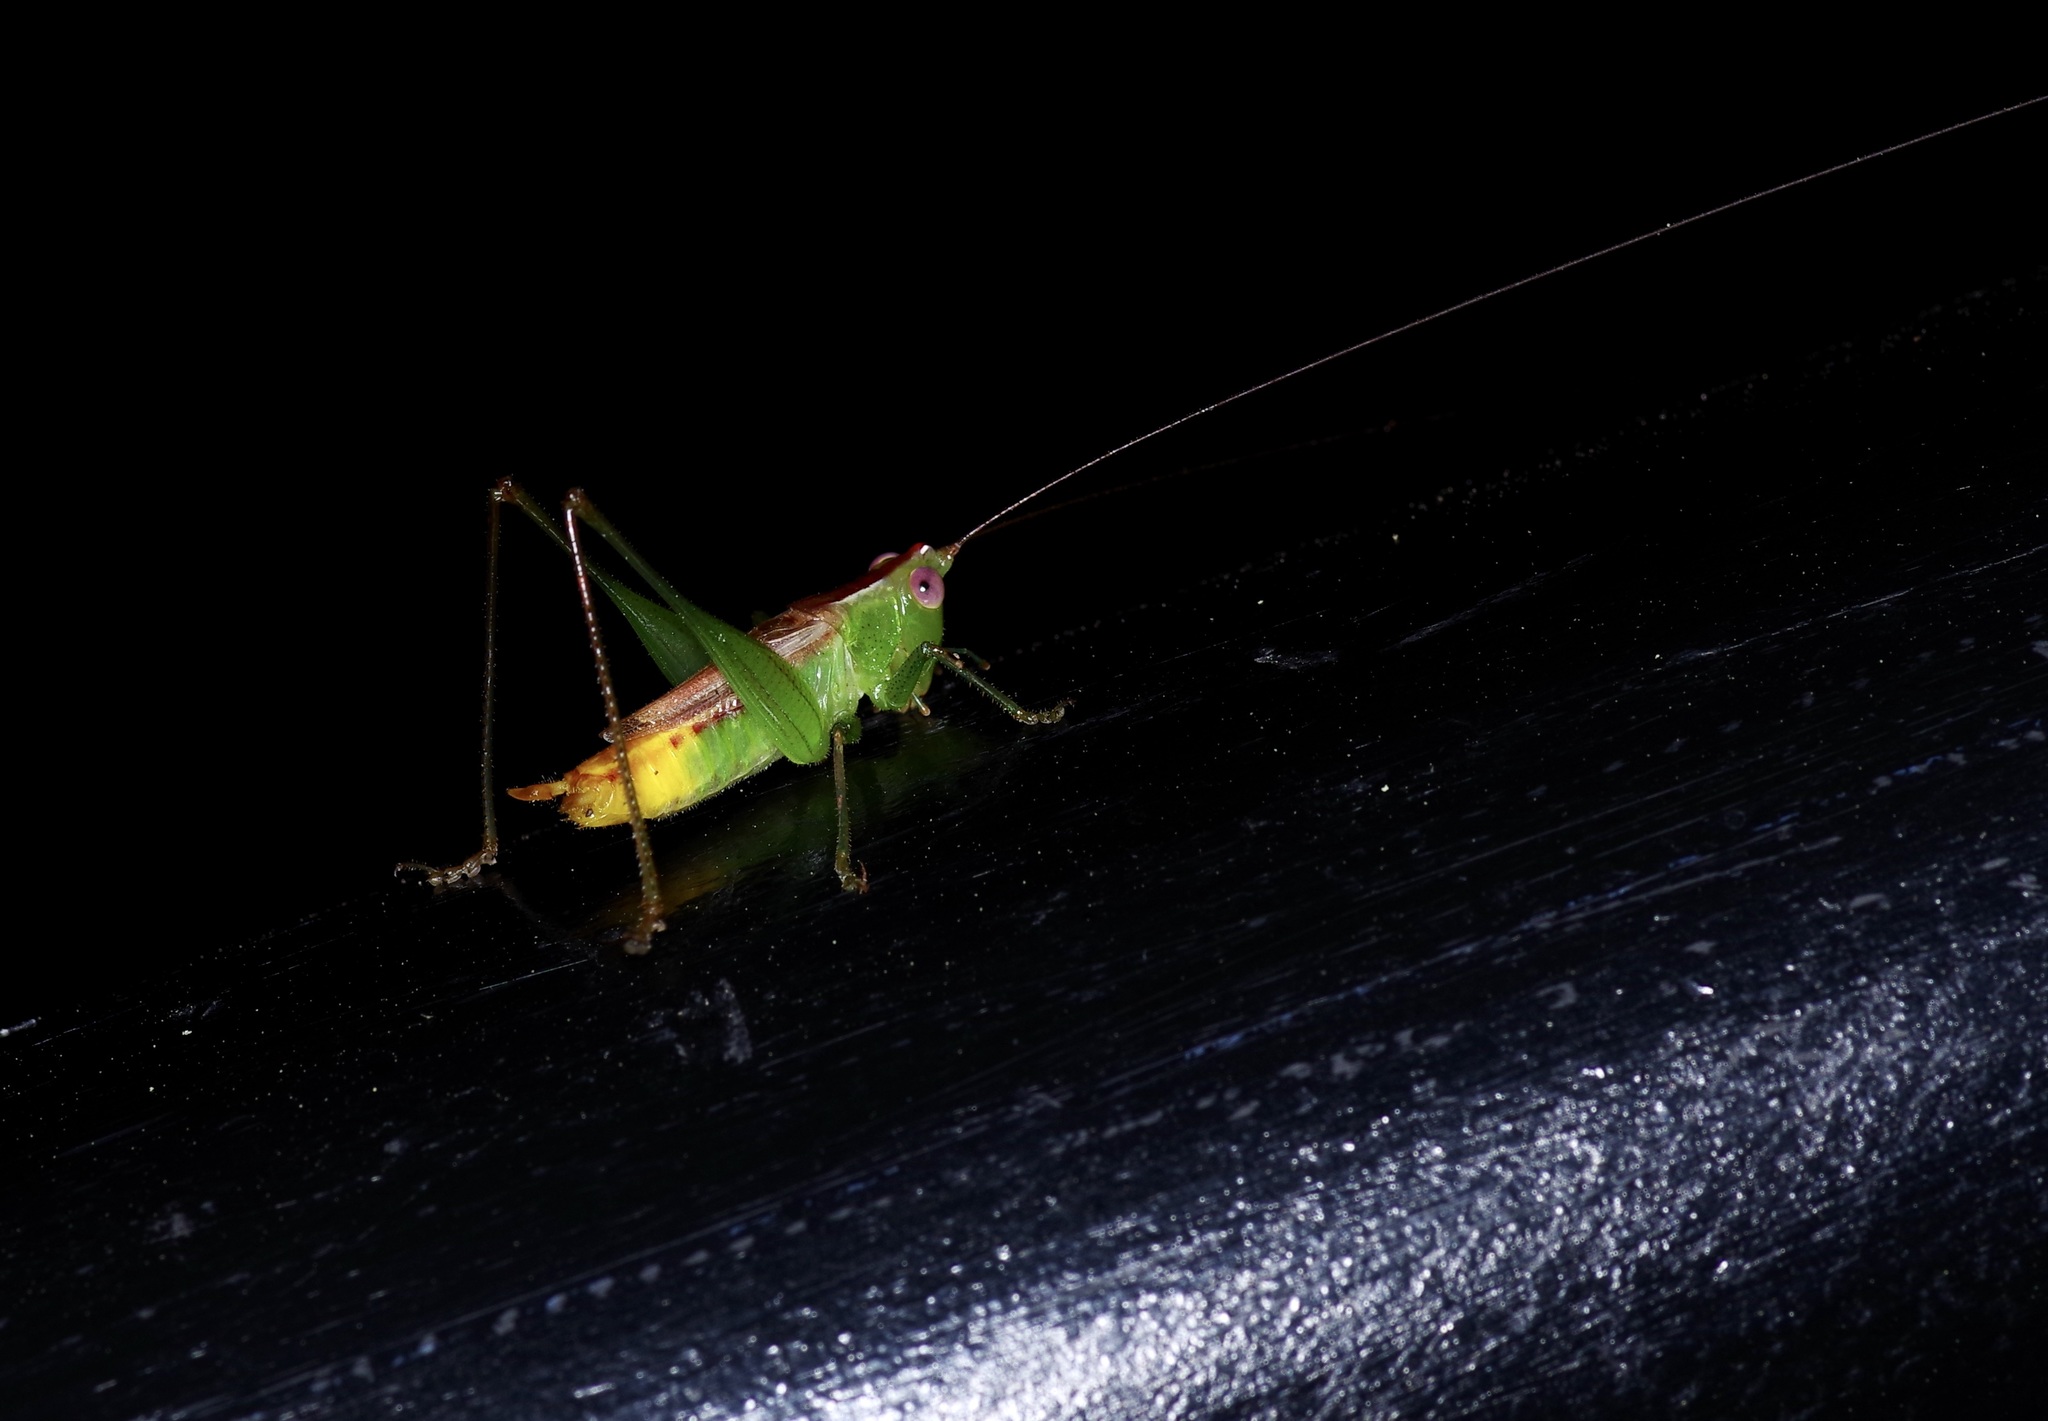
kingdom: Animalia
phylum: Arthropoda
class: Insecta
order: Orthoptera
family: Tettigoniidae
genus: Conocephalus
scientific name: Conocephalus brevipennis
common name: Short-winged meadow katydid
